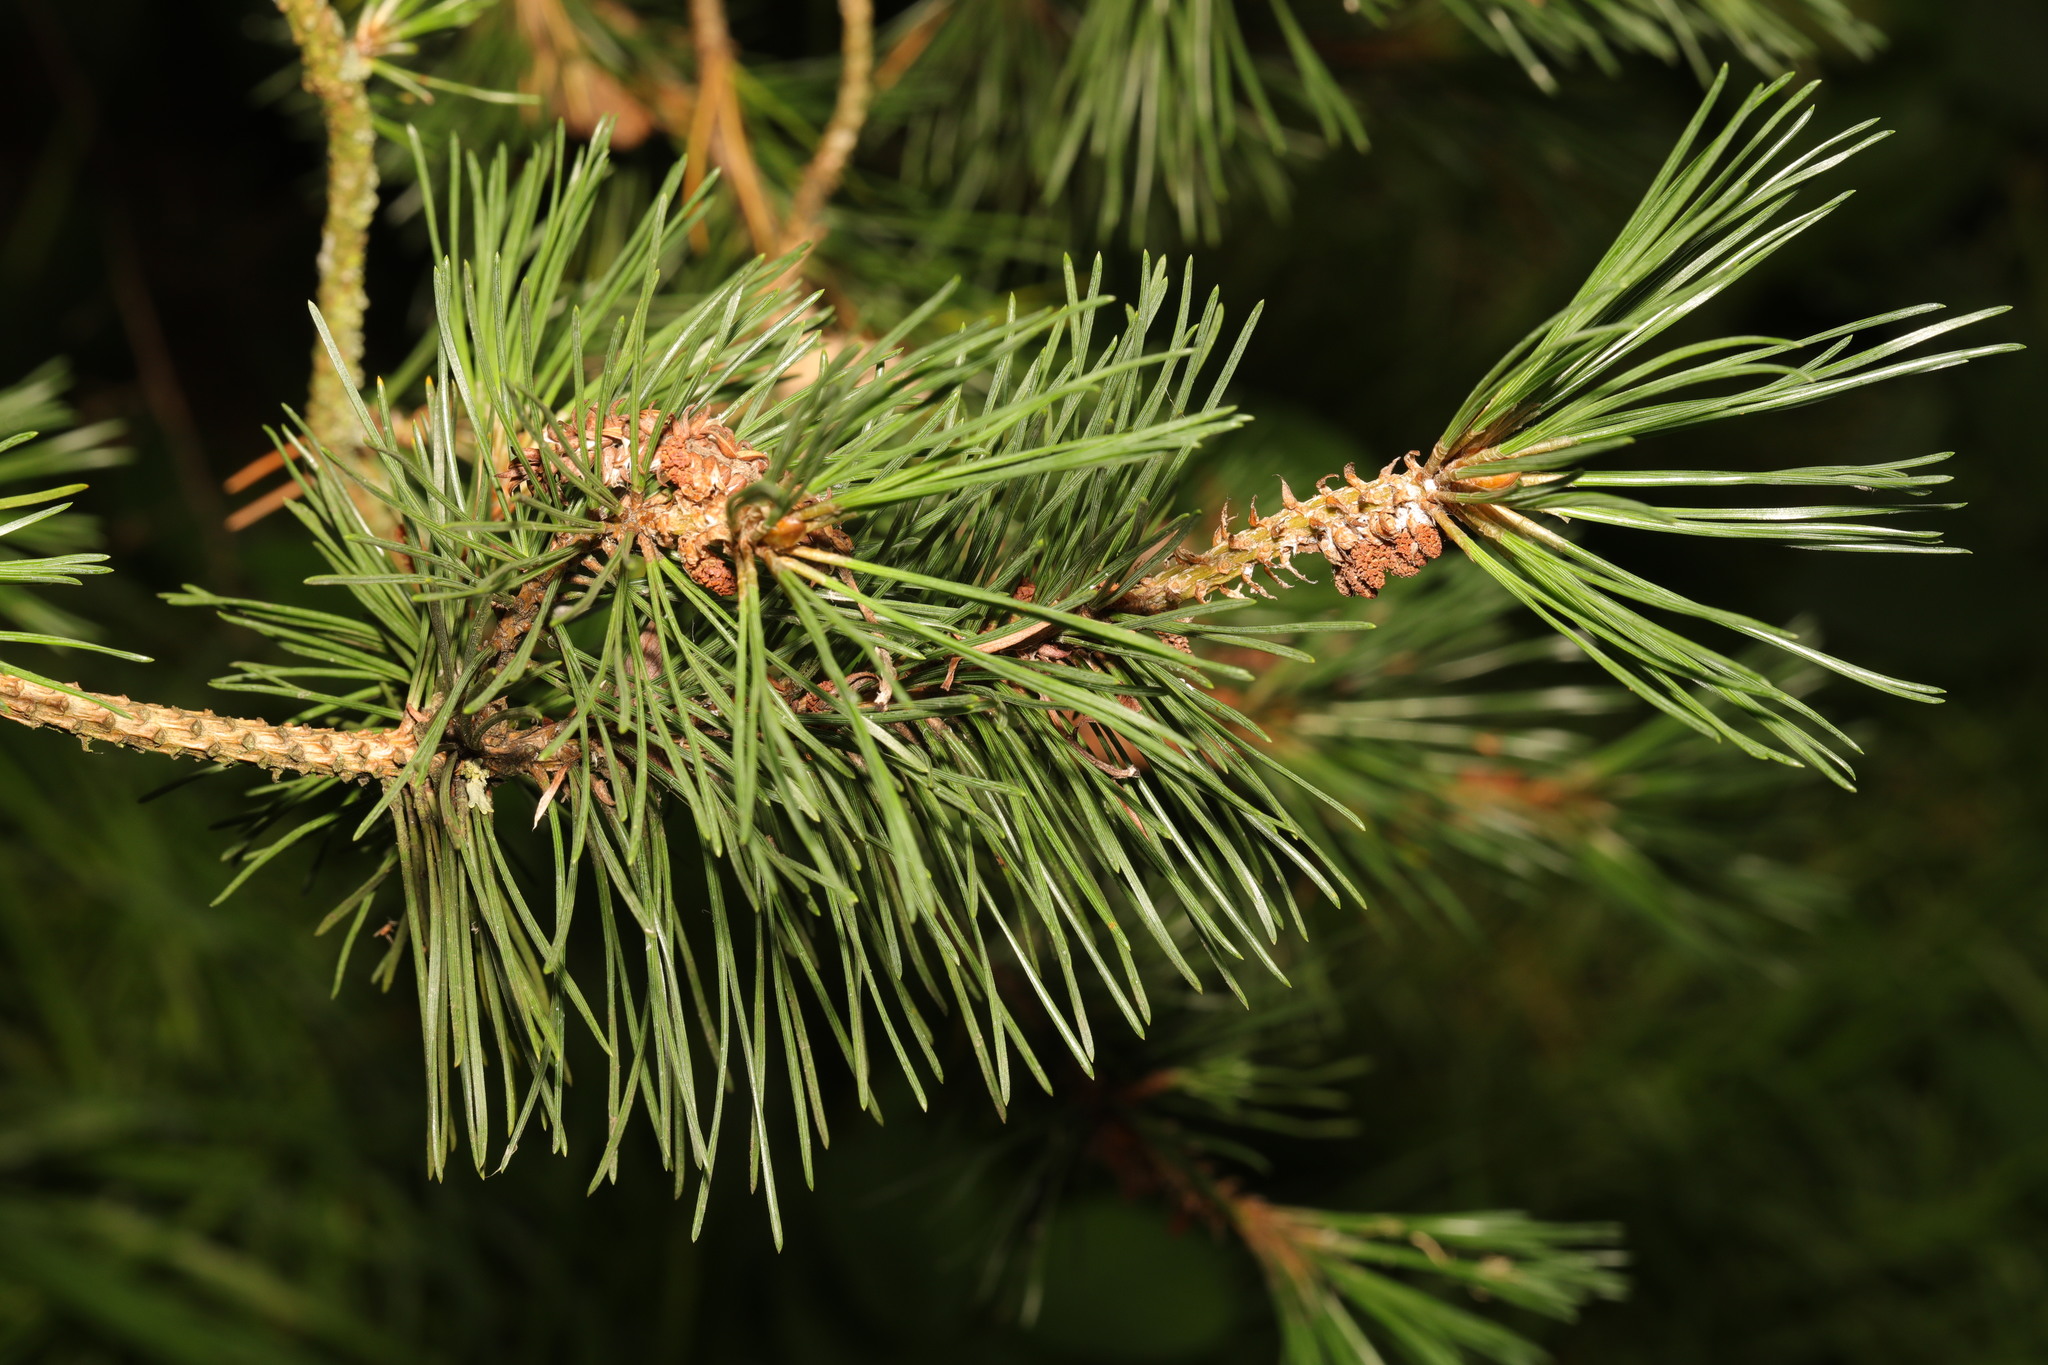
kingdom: Plantae
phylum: Tracheophyta
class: Pinopsida
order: Pinales
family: Pinaceae
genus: Pinus
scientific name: Pinus sylvestris
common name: Scots pine
